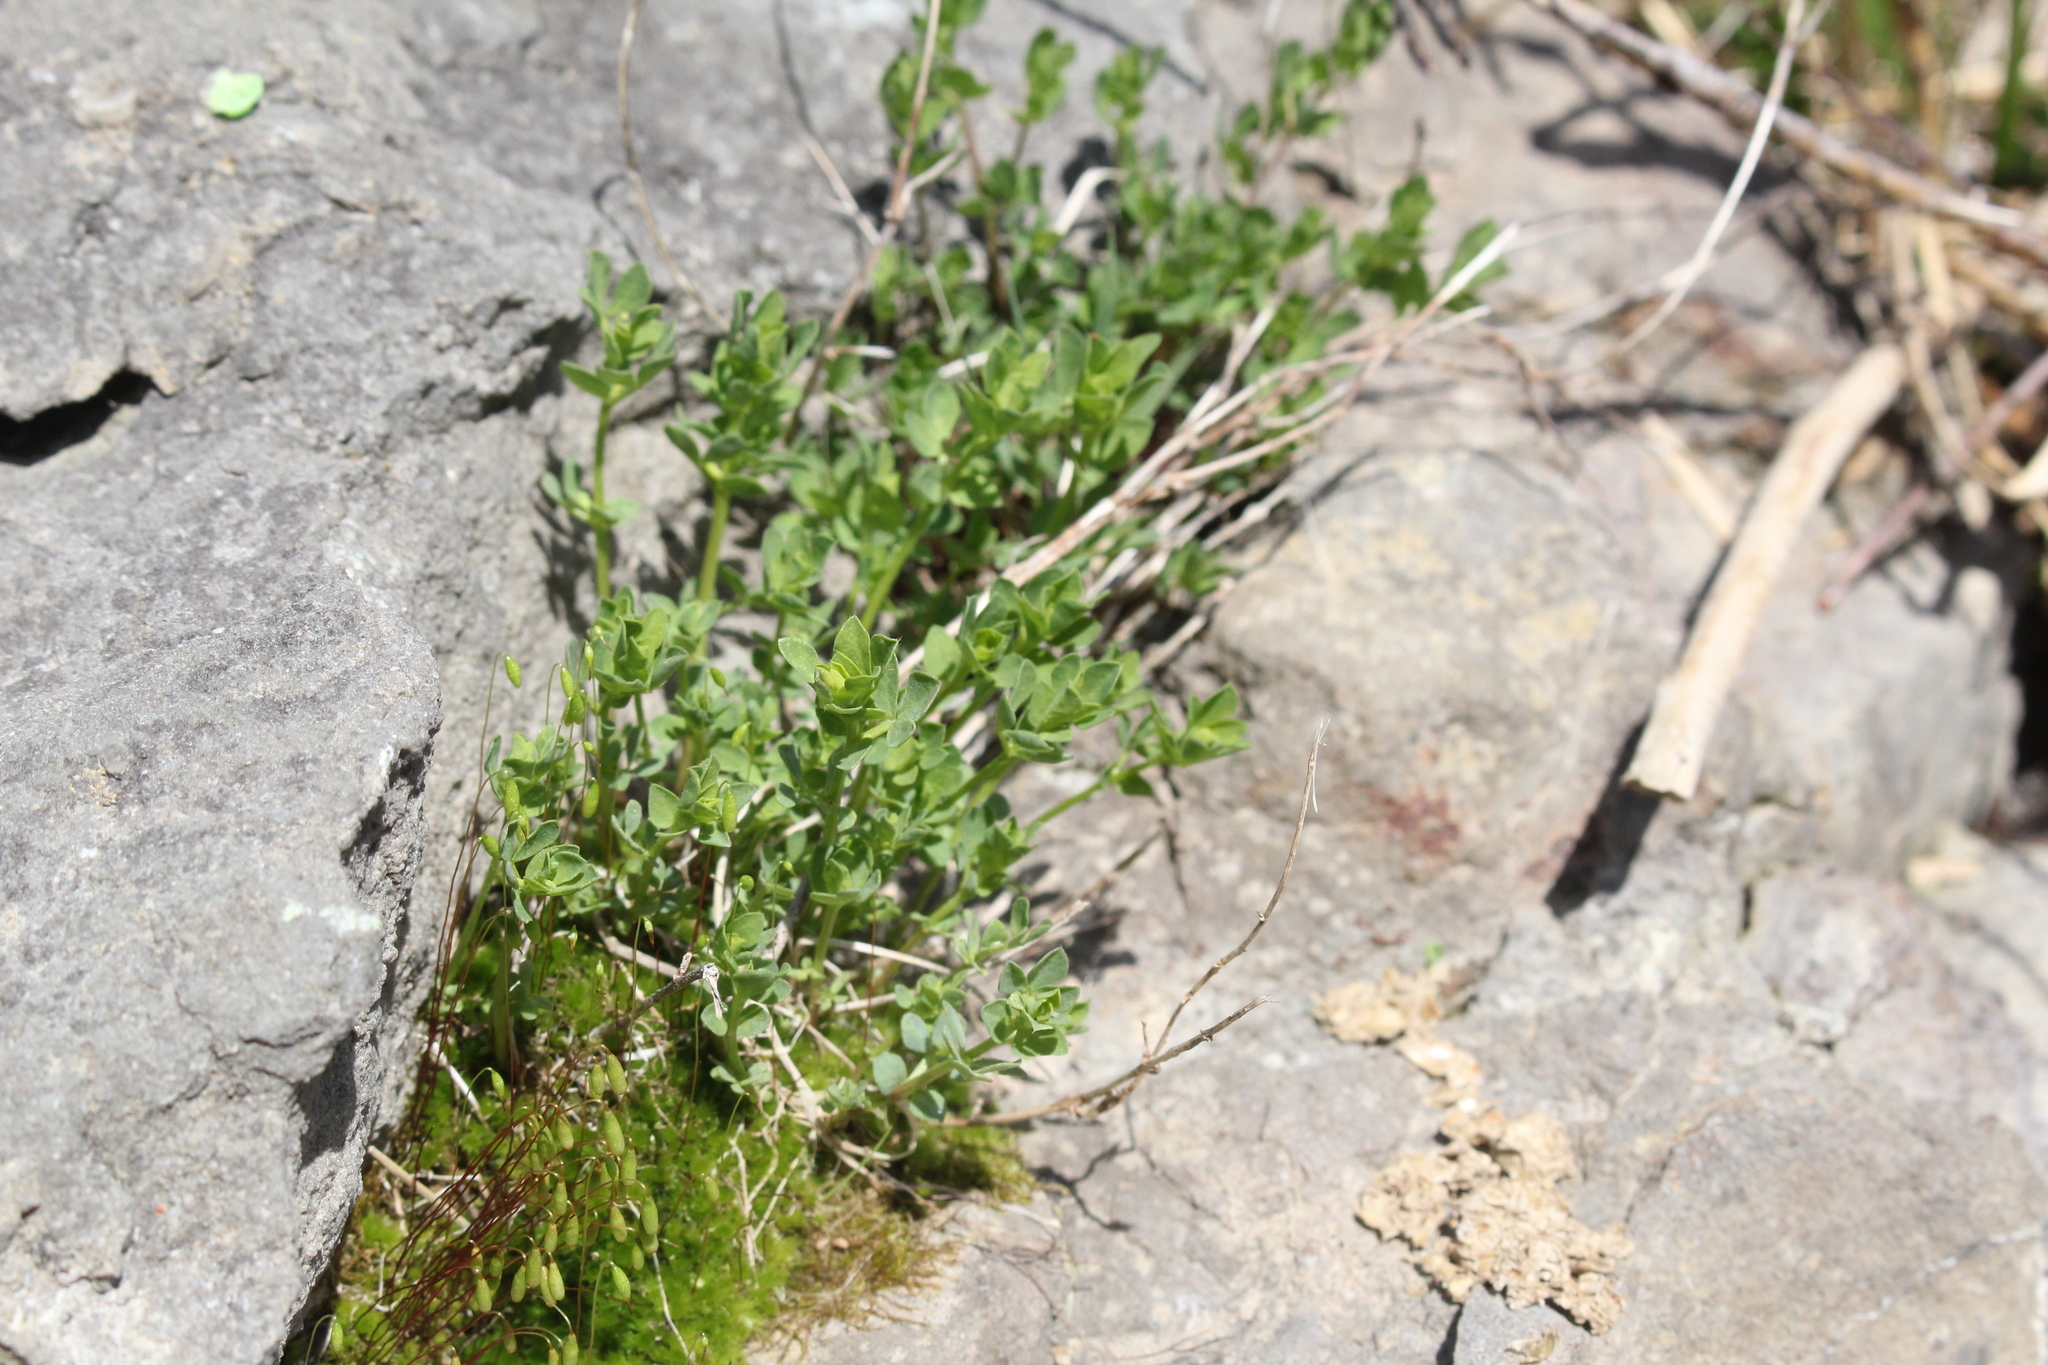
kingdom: Plantae
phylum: Tracheophyta
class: Magnoliopsida
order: Fabales
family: Fabaceae
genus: Lotus
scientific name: Lotus corniculatus
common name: Common bird's-foot-trefoil
